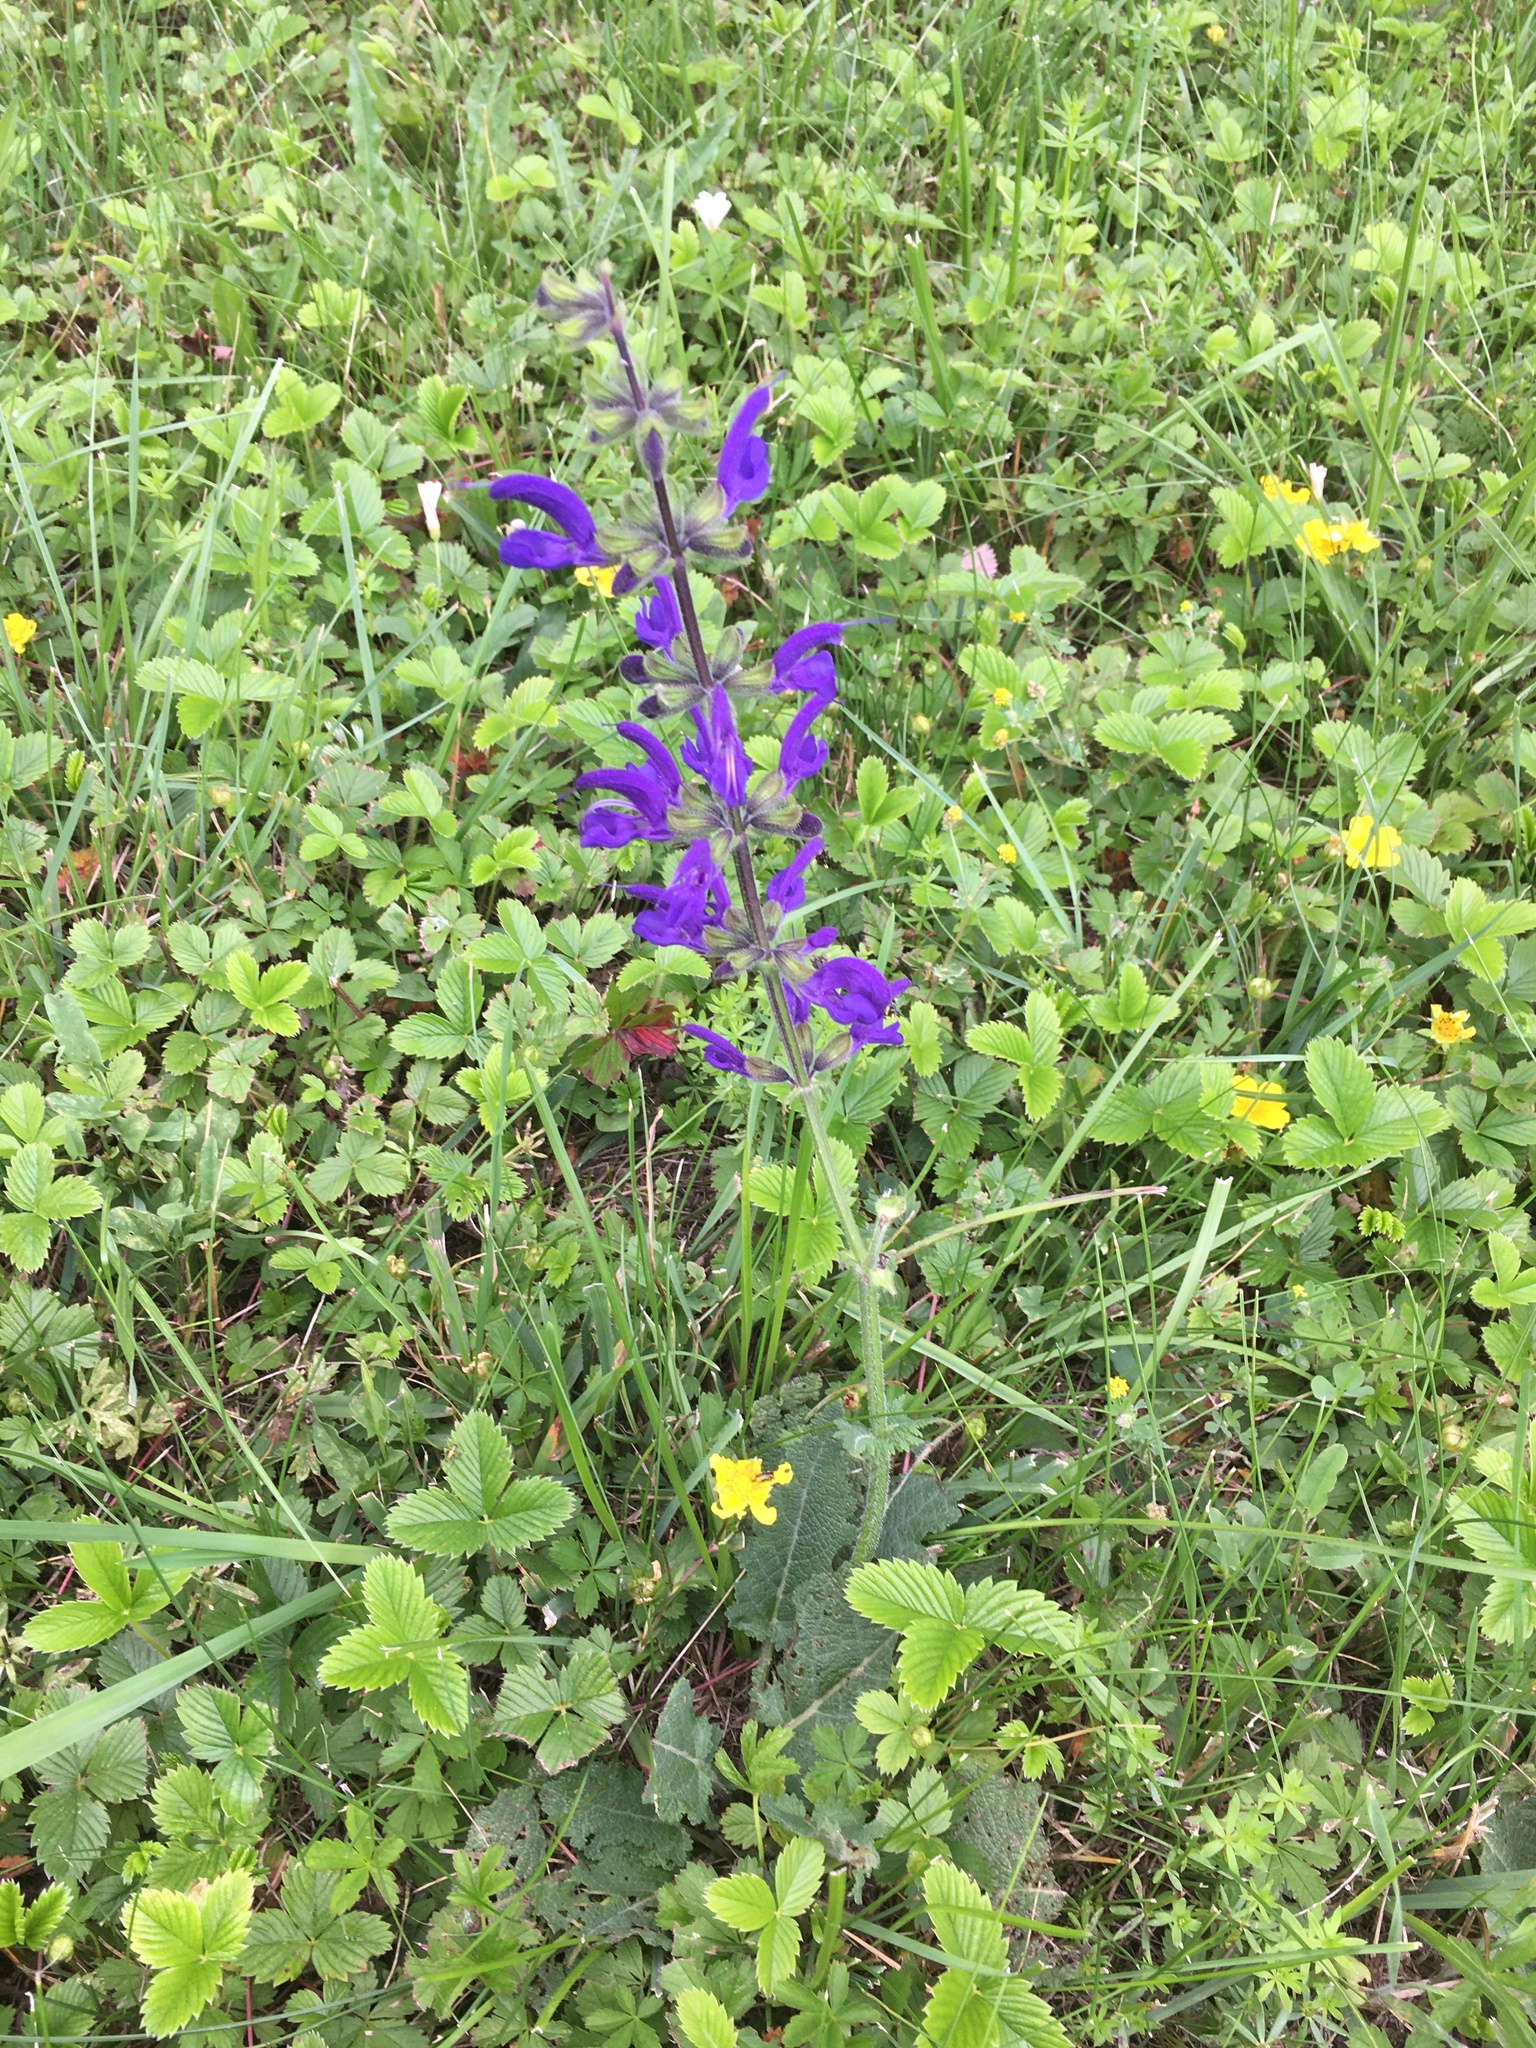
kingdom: Plantae
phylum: Tracheophyta
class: Magnoliopsida
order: Lamiales
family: Lamiaceae
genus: Salvia
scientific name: Salvia pratensis
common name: Meadow sage
